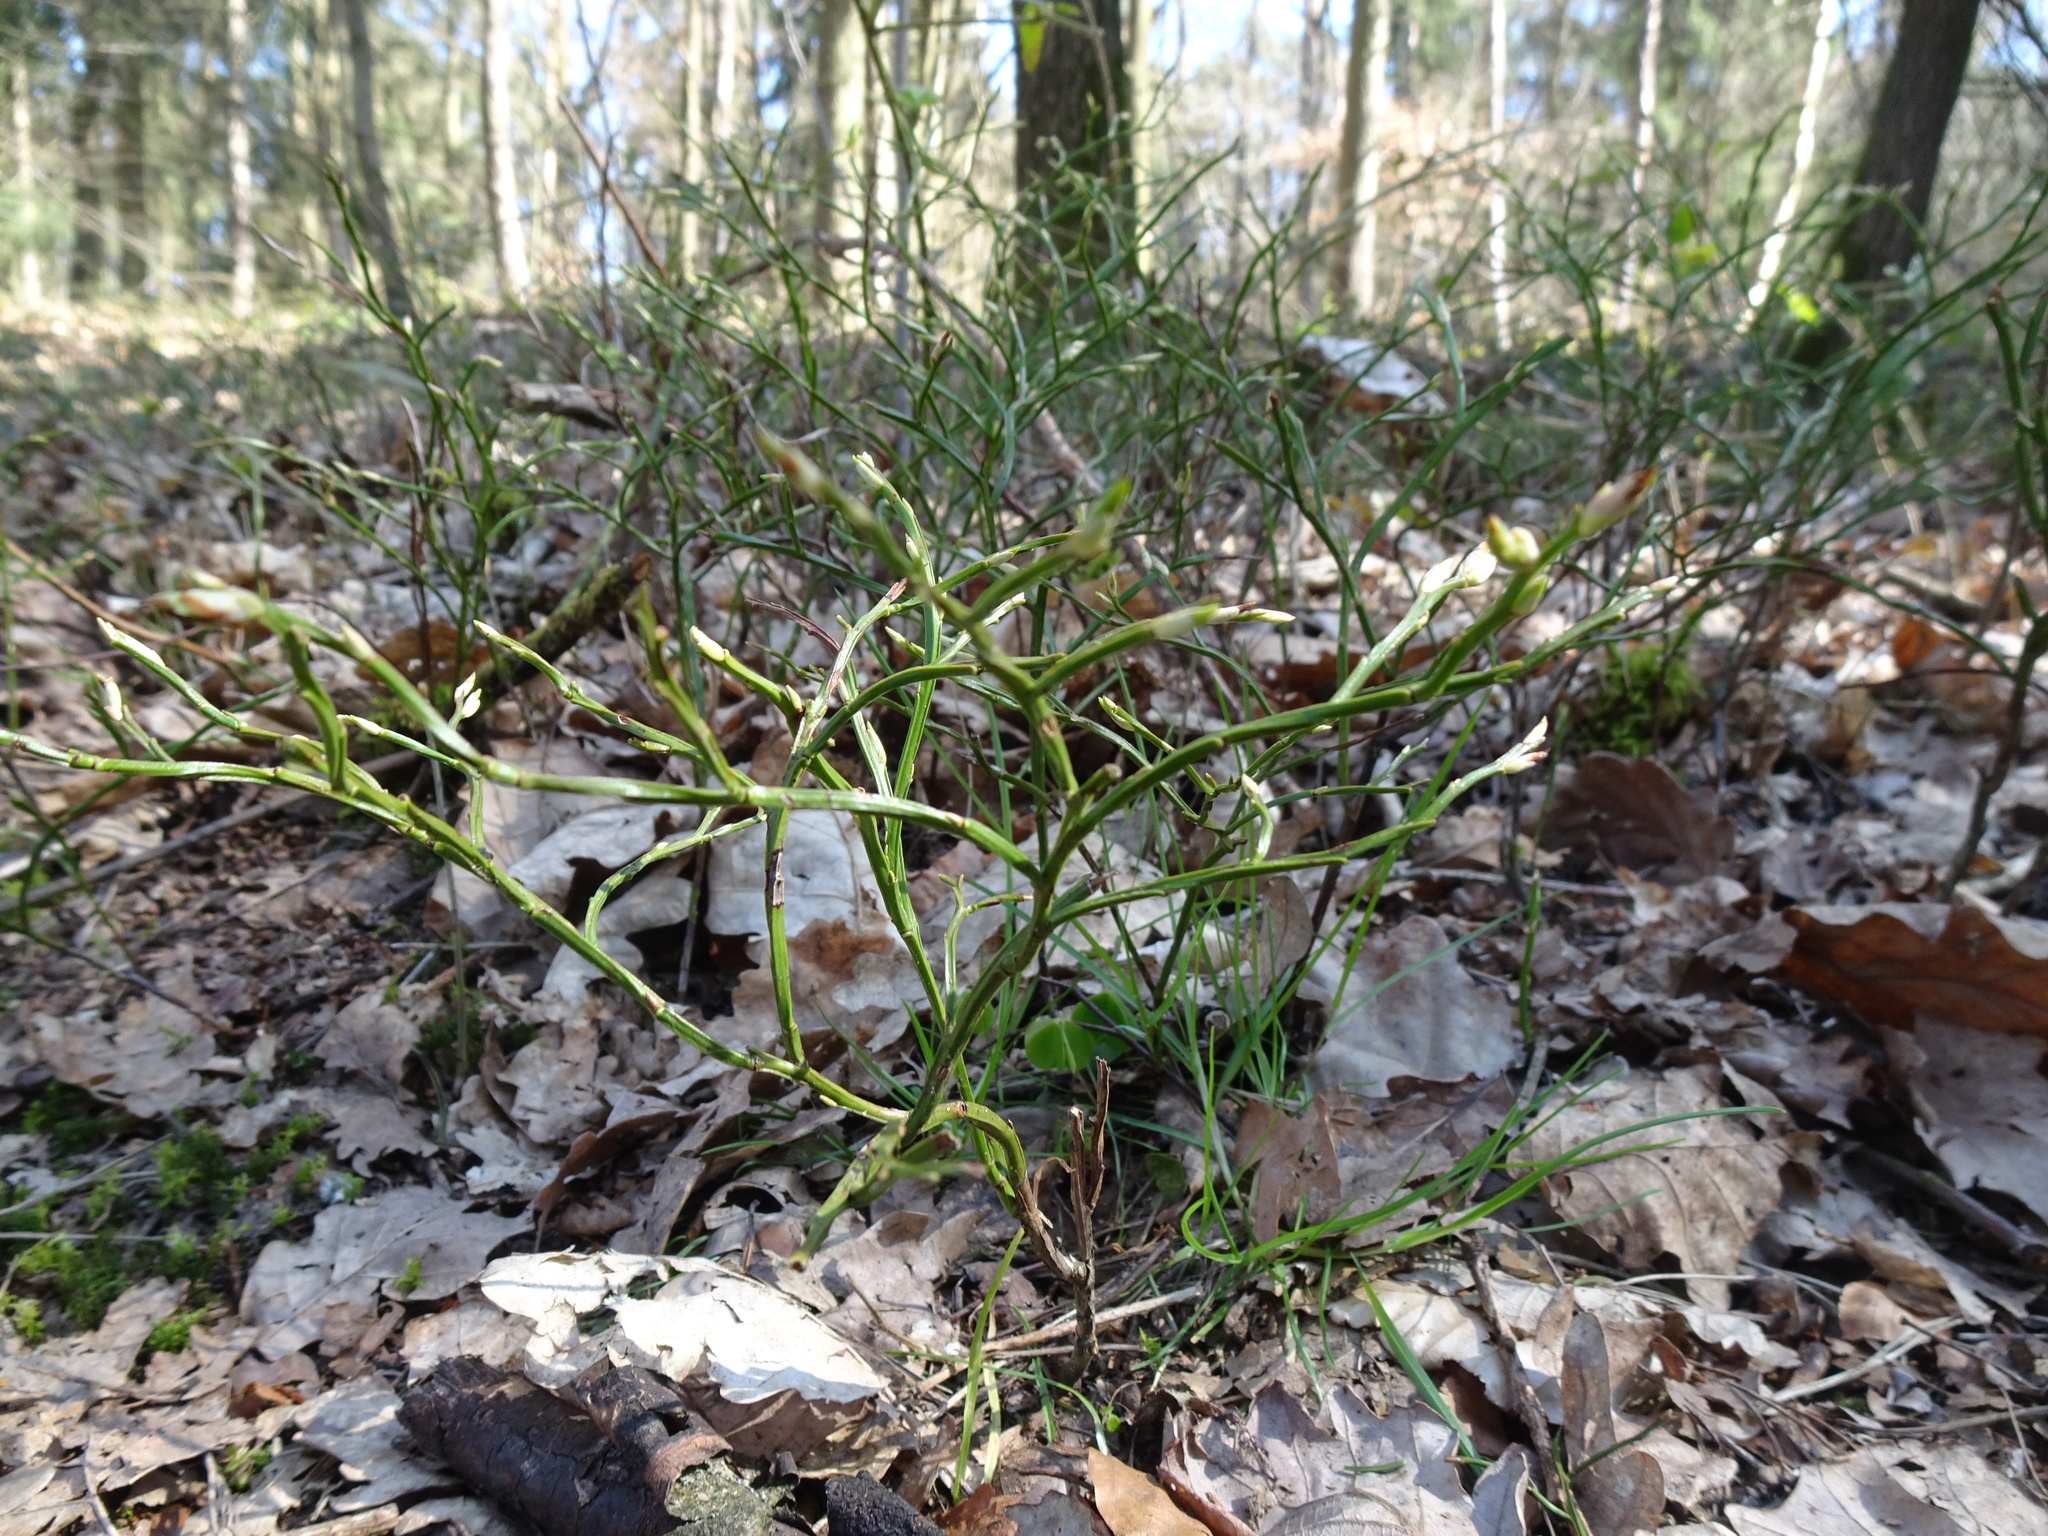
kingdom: Plantae
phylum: Tracheophyta
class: Magnoliopsida
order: Ericales
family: Ericaceae
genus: Vaccinium
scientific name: Vaccinium myrtillus
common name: Bilberry
